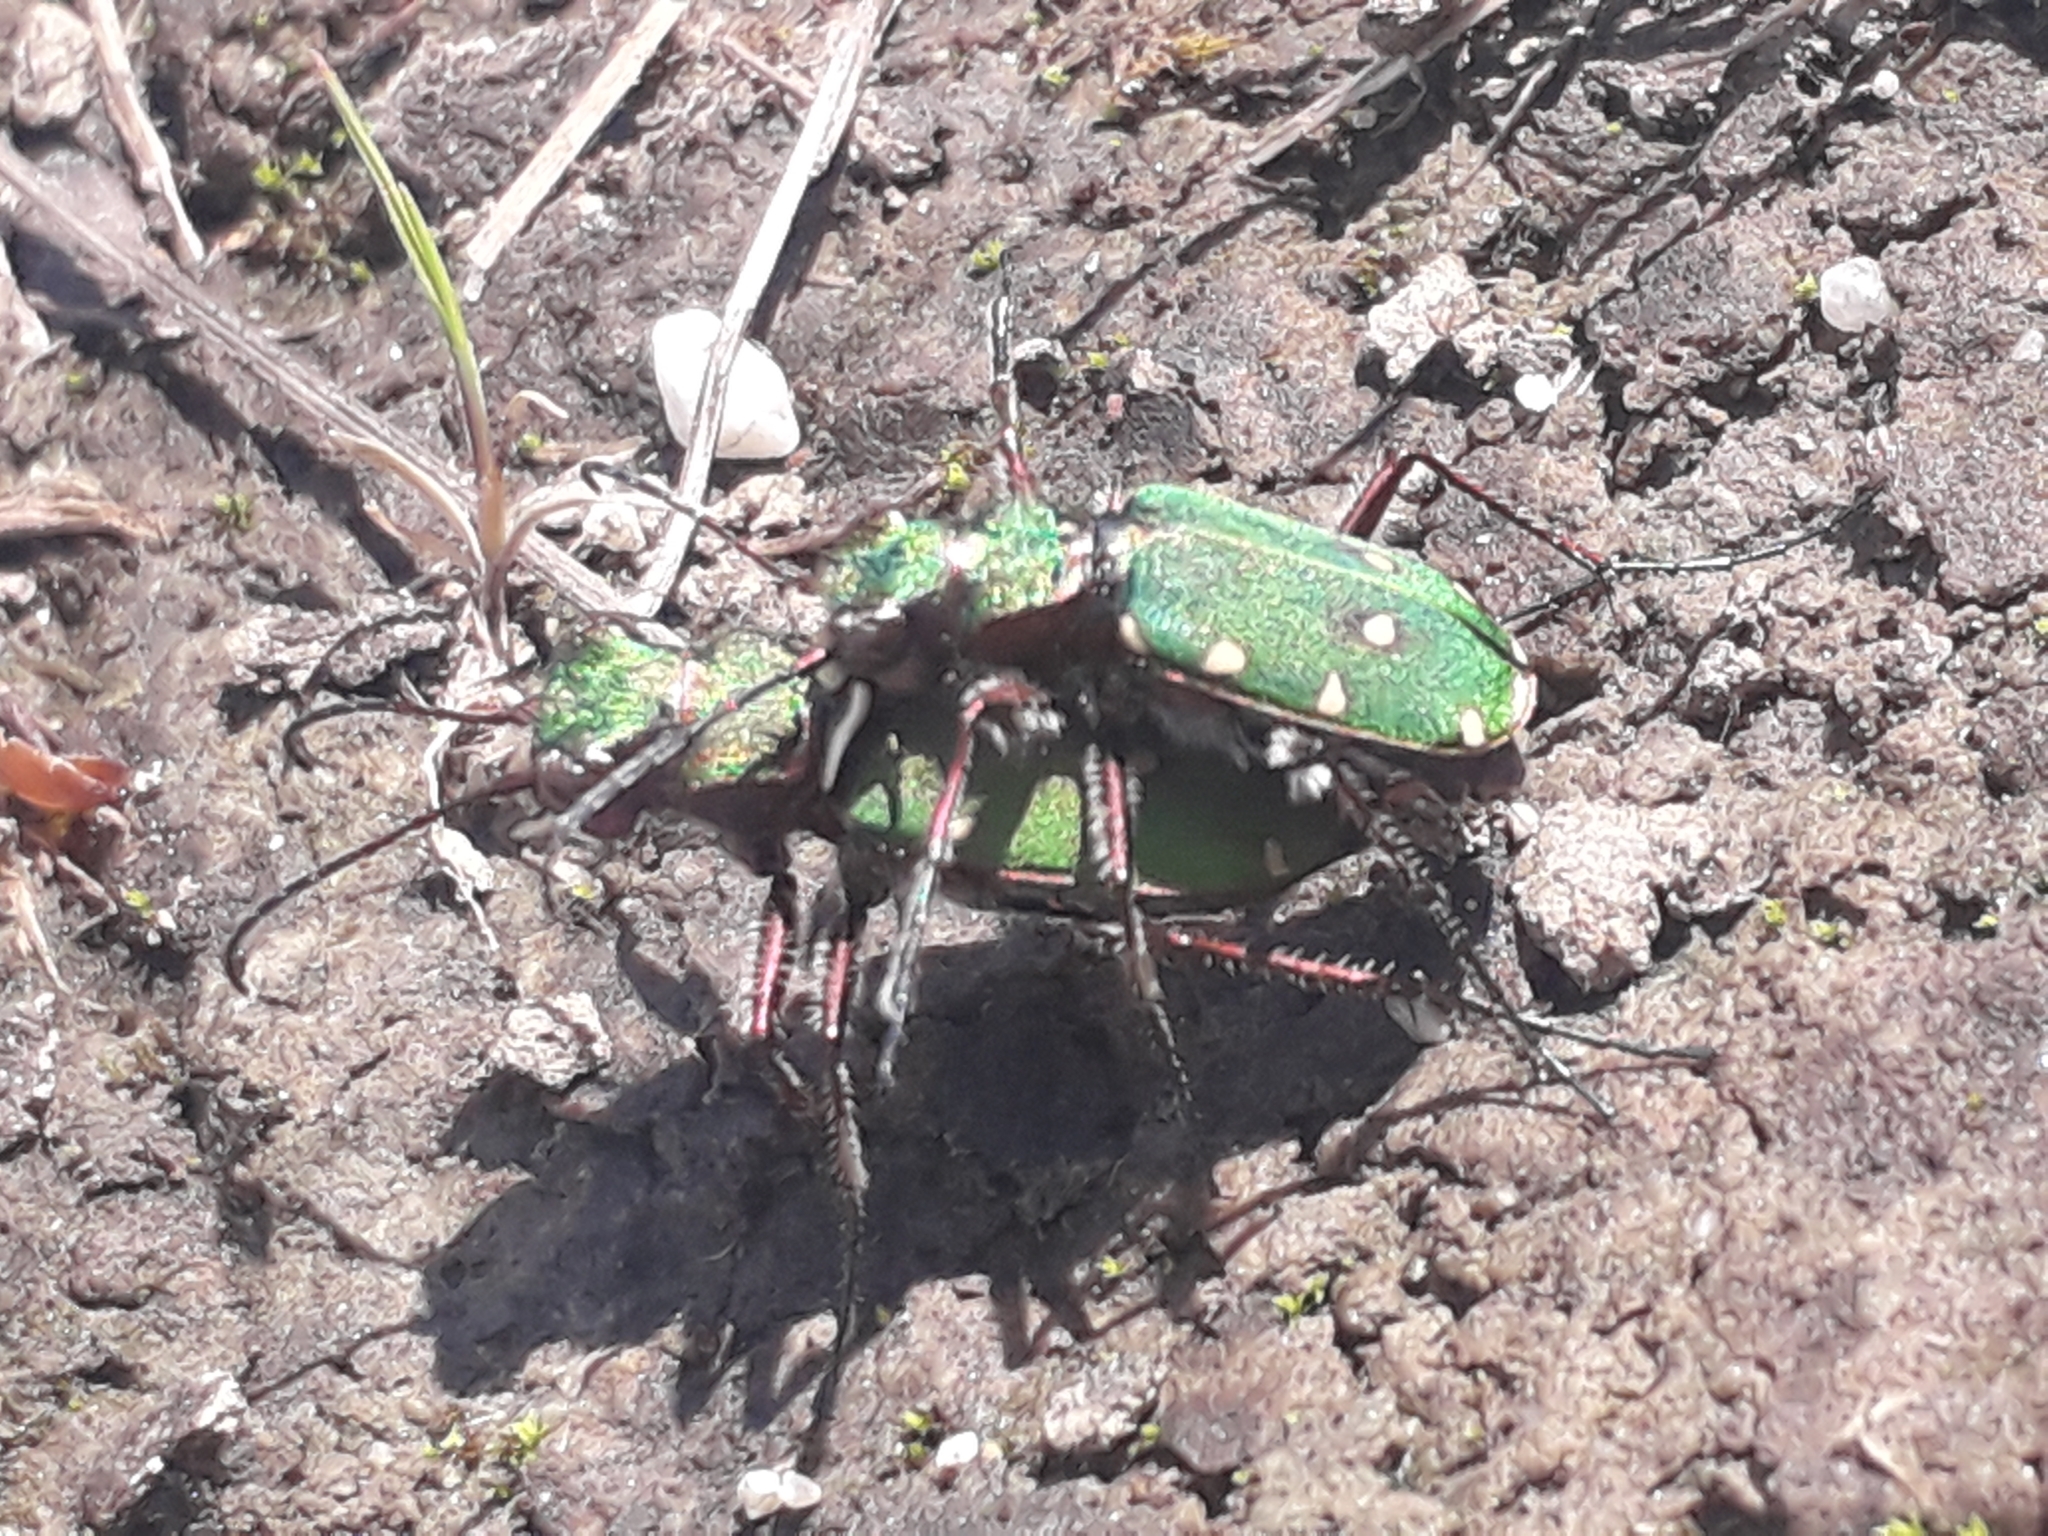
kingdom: Animalia
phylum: Arthropoda
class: Insecta
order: Coleoptera
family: Carabidae
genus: Cicindela
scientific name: Cicindela campestris
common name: Common tiger beetle
